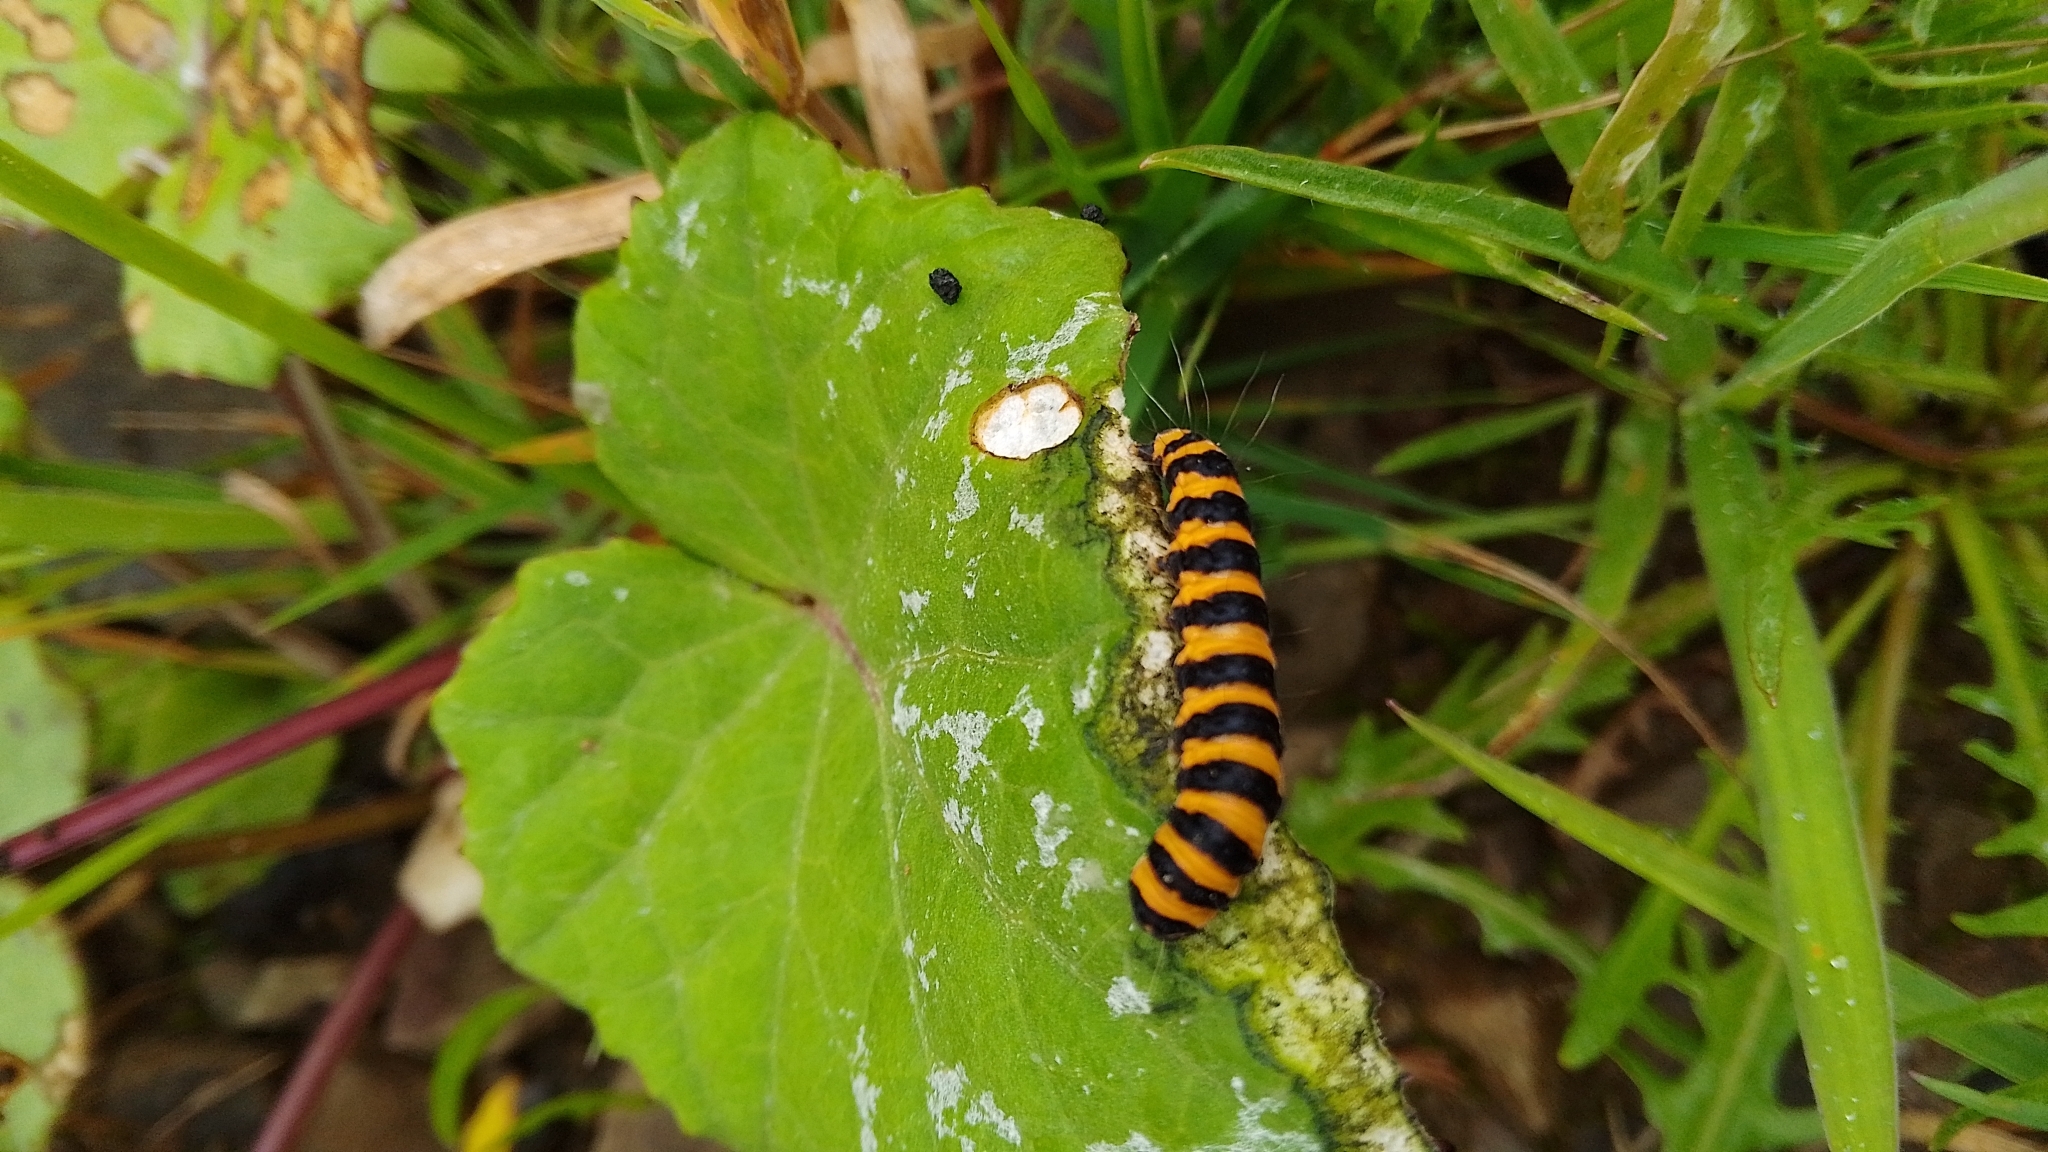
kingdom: Animalia
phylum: Arthropoda
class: Insecta
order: Lepidoptera
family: Erebidae
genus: Tyria
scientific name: Tyria jacobaeae
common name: Cinnabar
